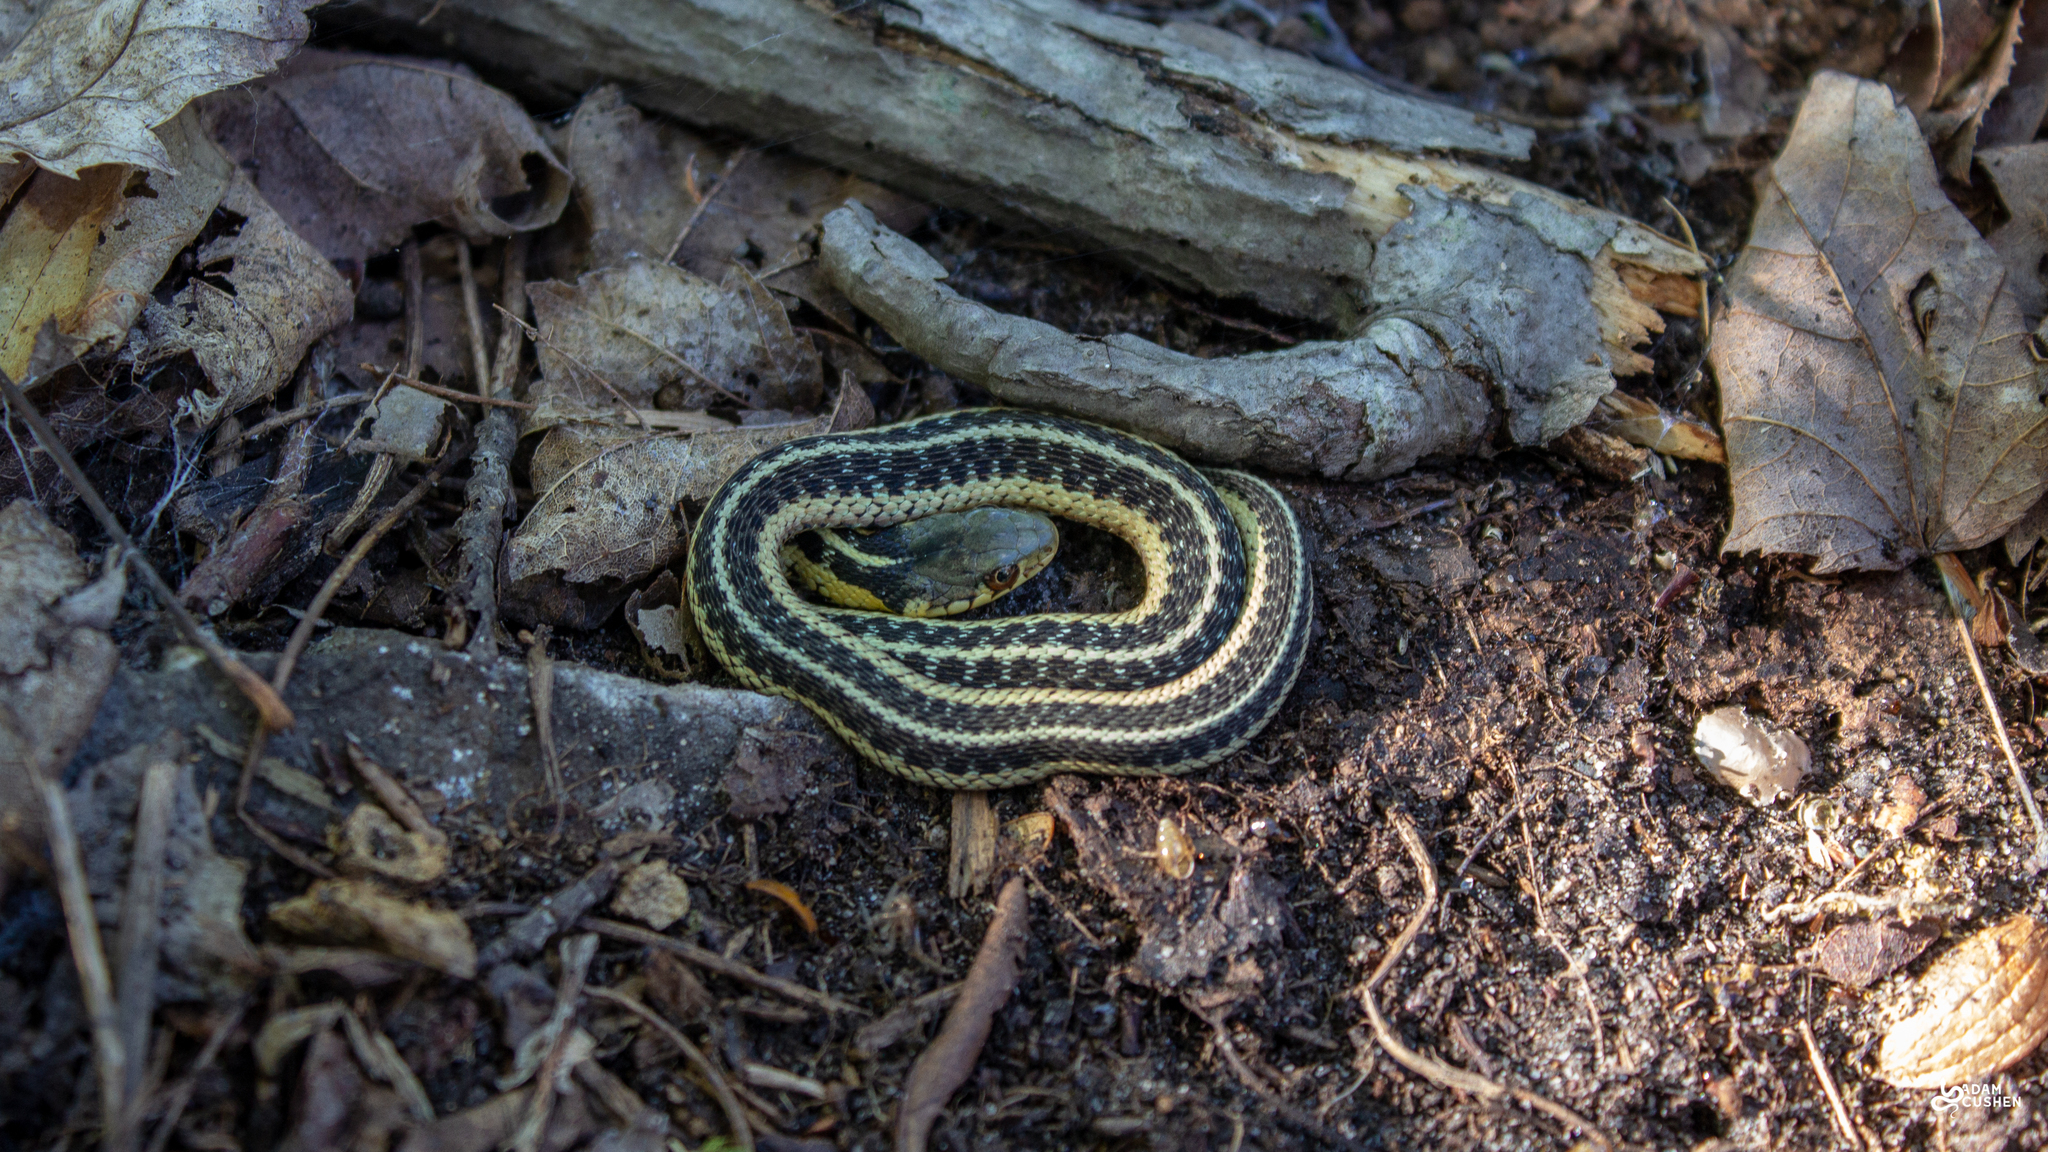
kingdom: Animalia
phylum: Chordata
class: Squamata
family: Colubridae
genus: Thamnophis
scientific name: Thamnophis sirtalis
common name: Common garter snake
